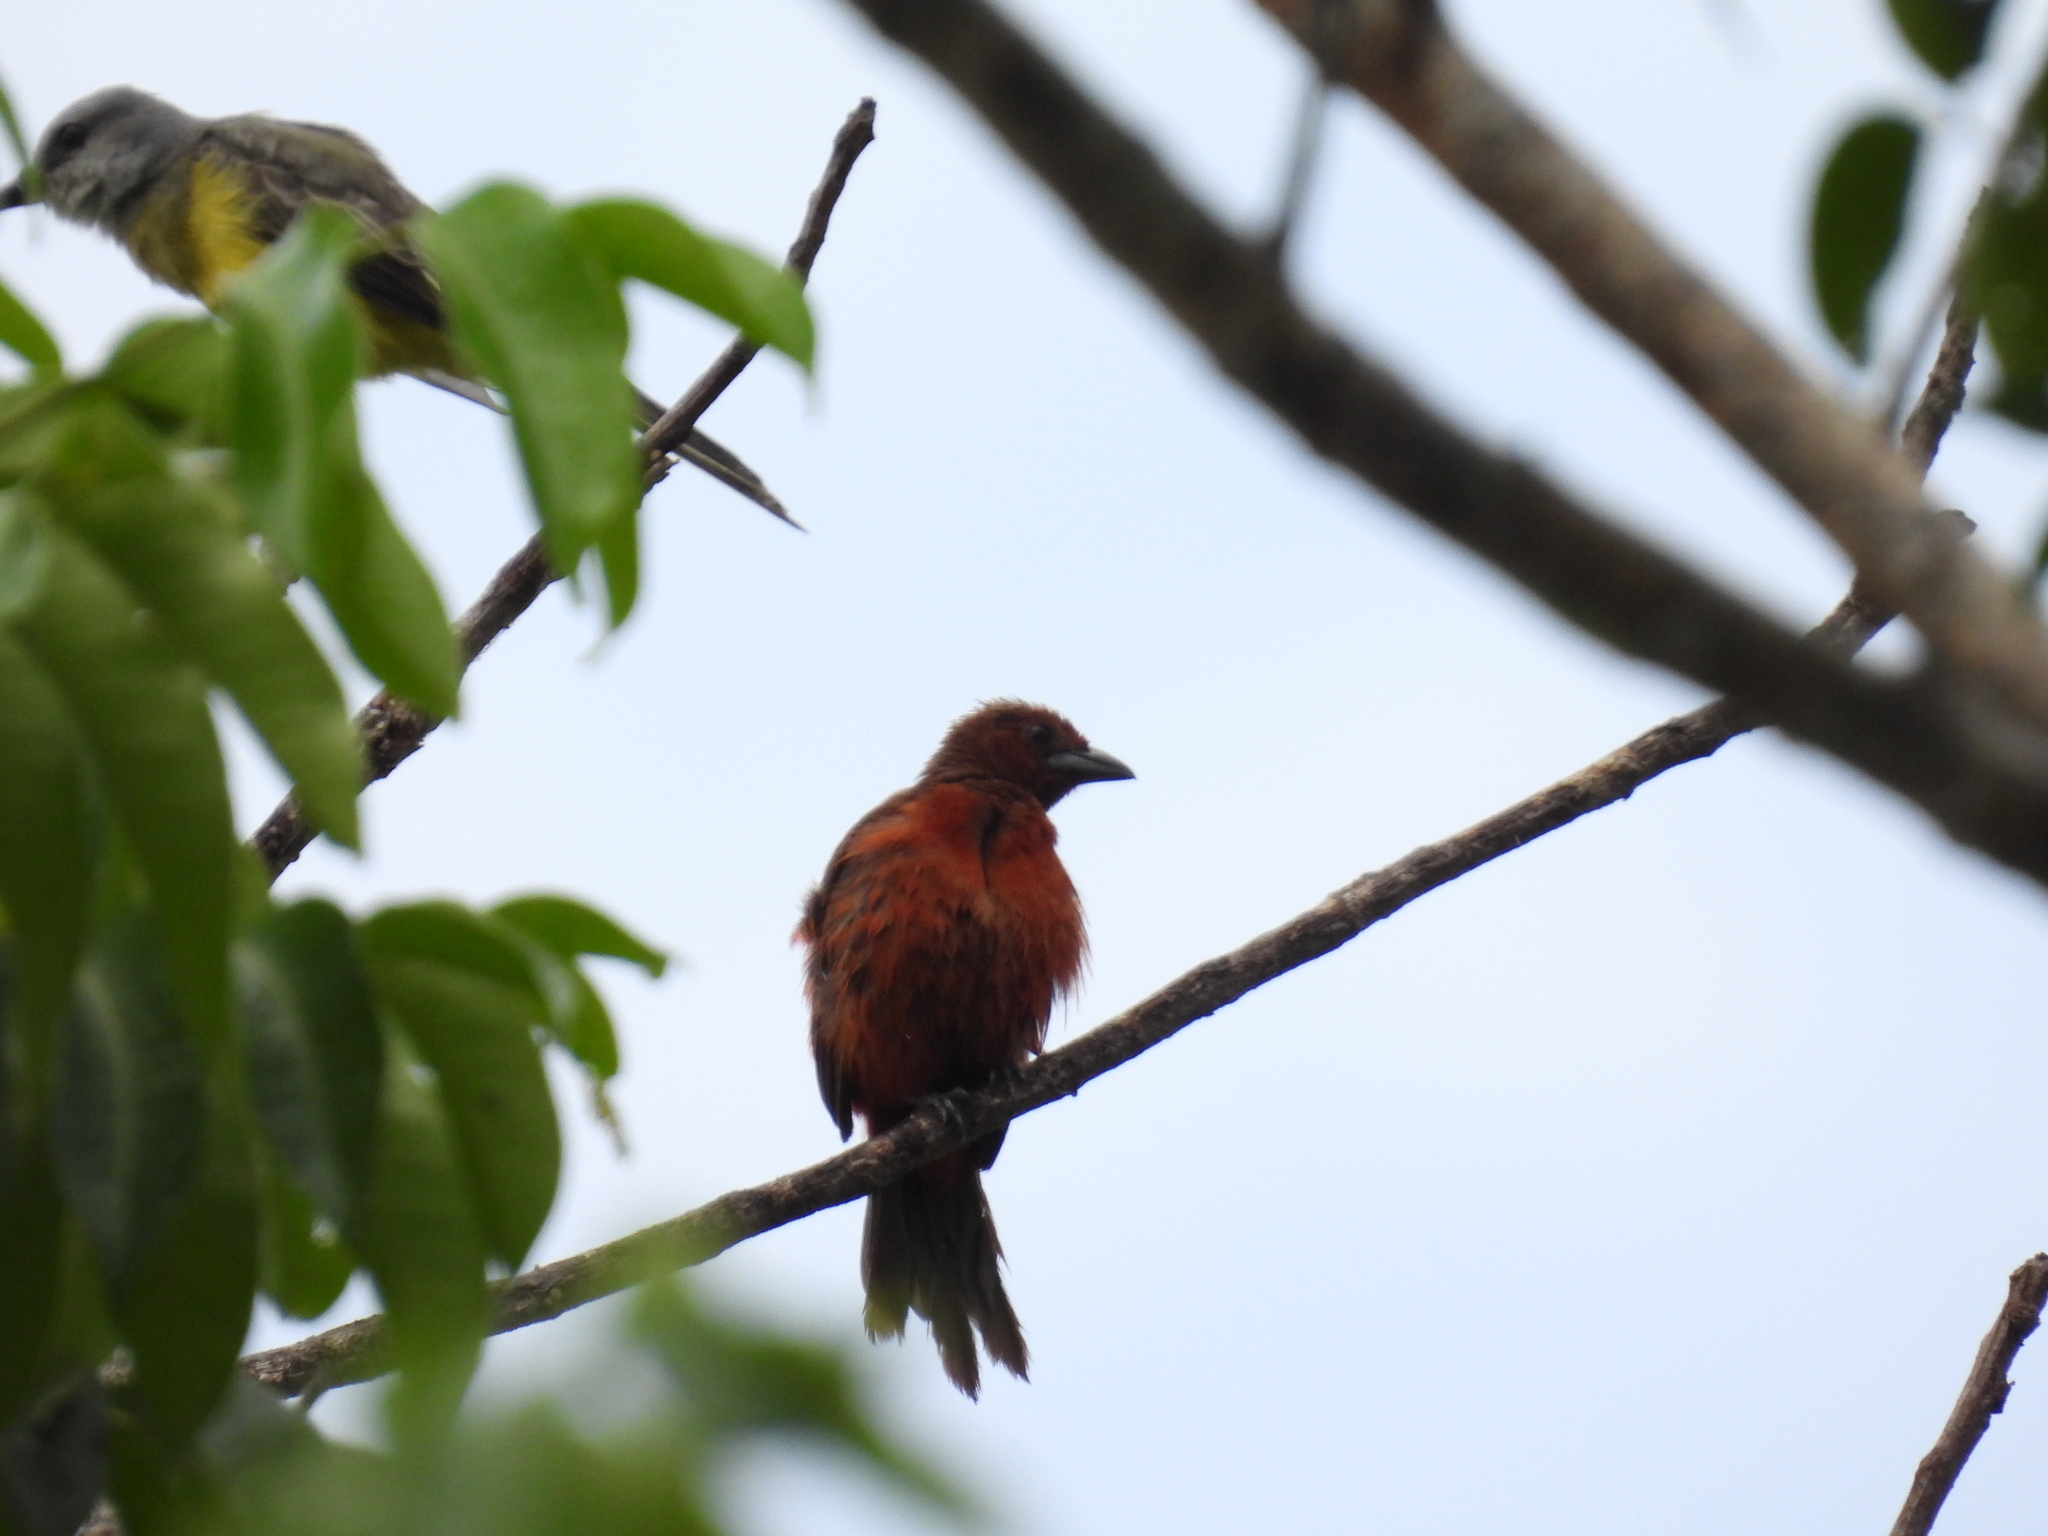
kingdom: Animalia
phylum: Chordata
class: Aves
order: Passeriformes
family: Thraupidae
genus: Ramphocelus
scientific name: Ramphocelus dimidiatus
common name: Crimson-backed tanager
